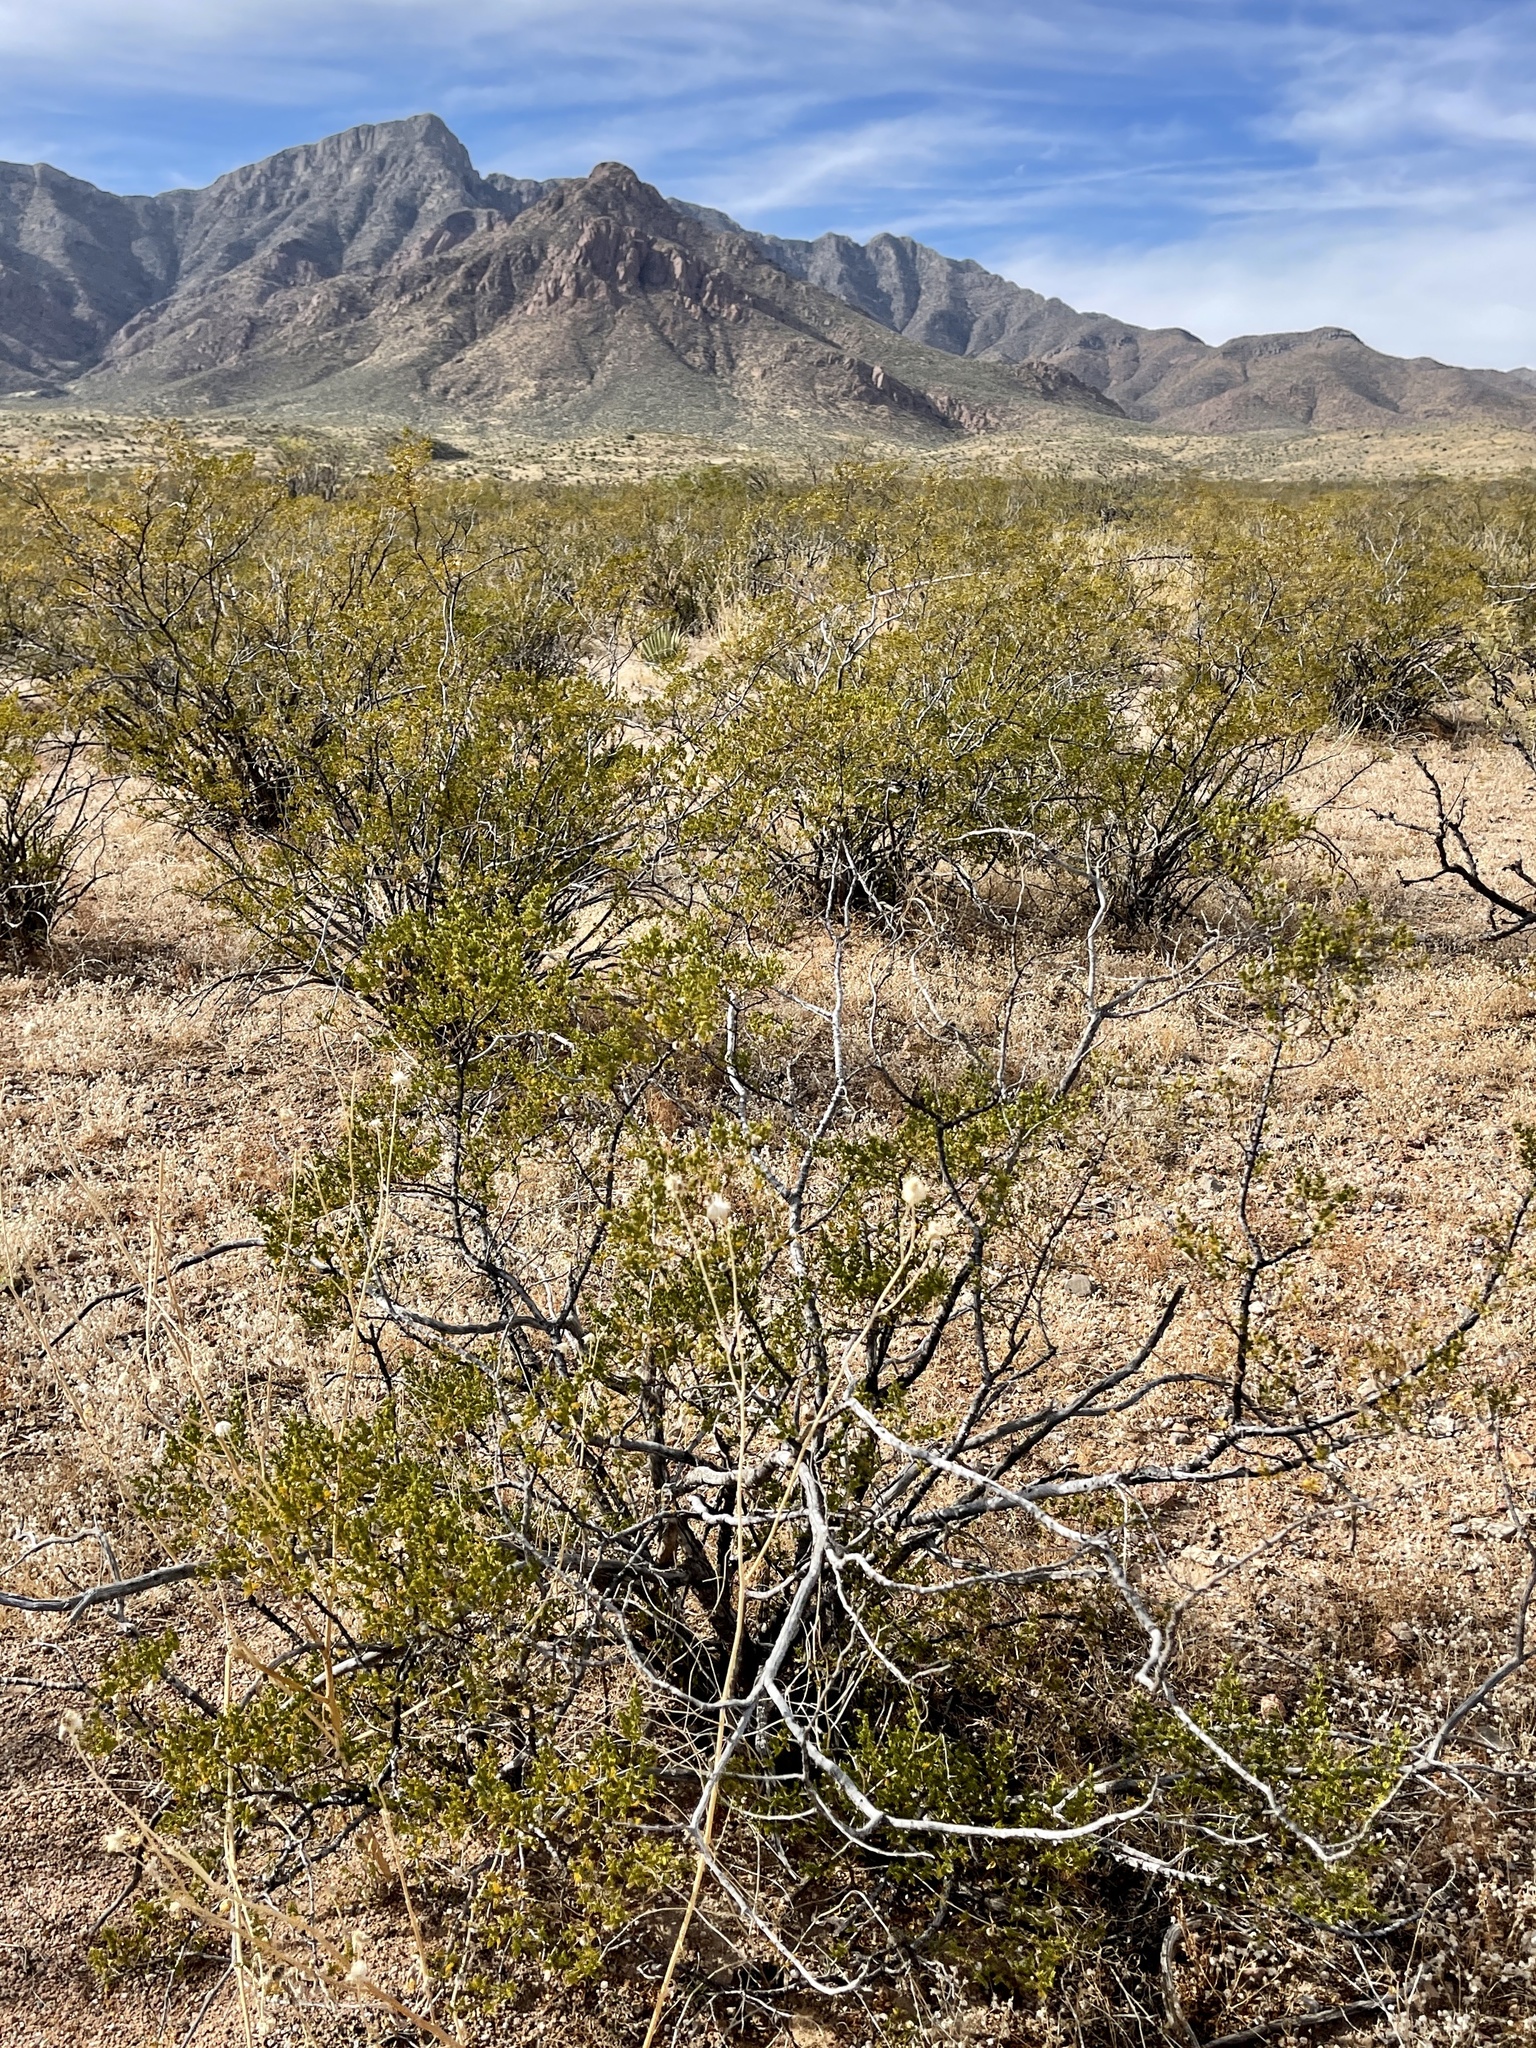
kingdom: Plantae
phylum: Tracheophyta
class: Magnoliopsida
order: Zygophyllales
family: Zygophyllaceae
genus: Larrea
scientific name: Larrea tridentata
